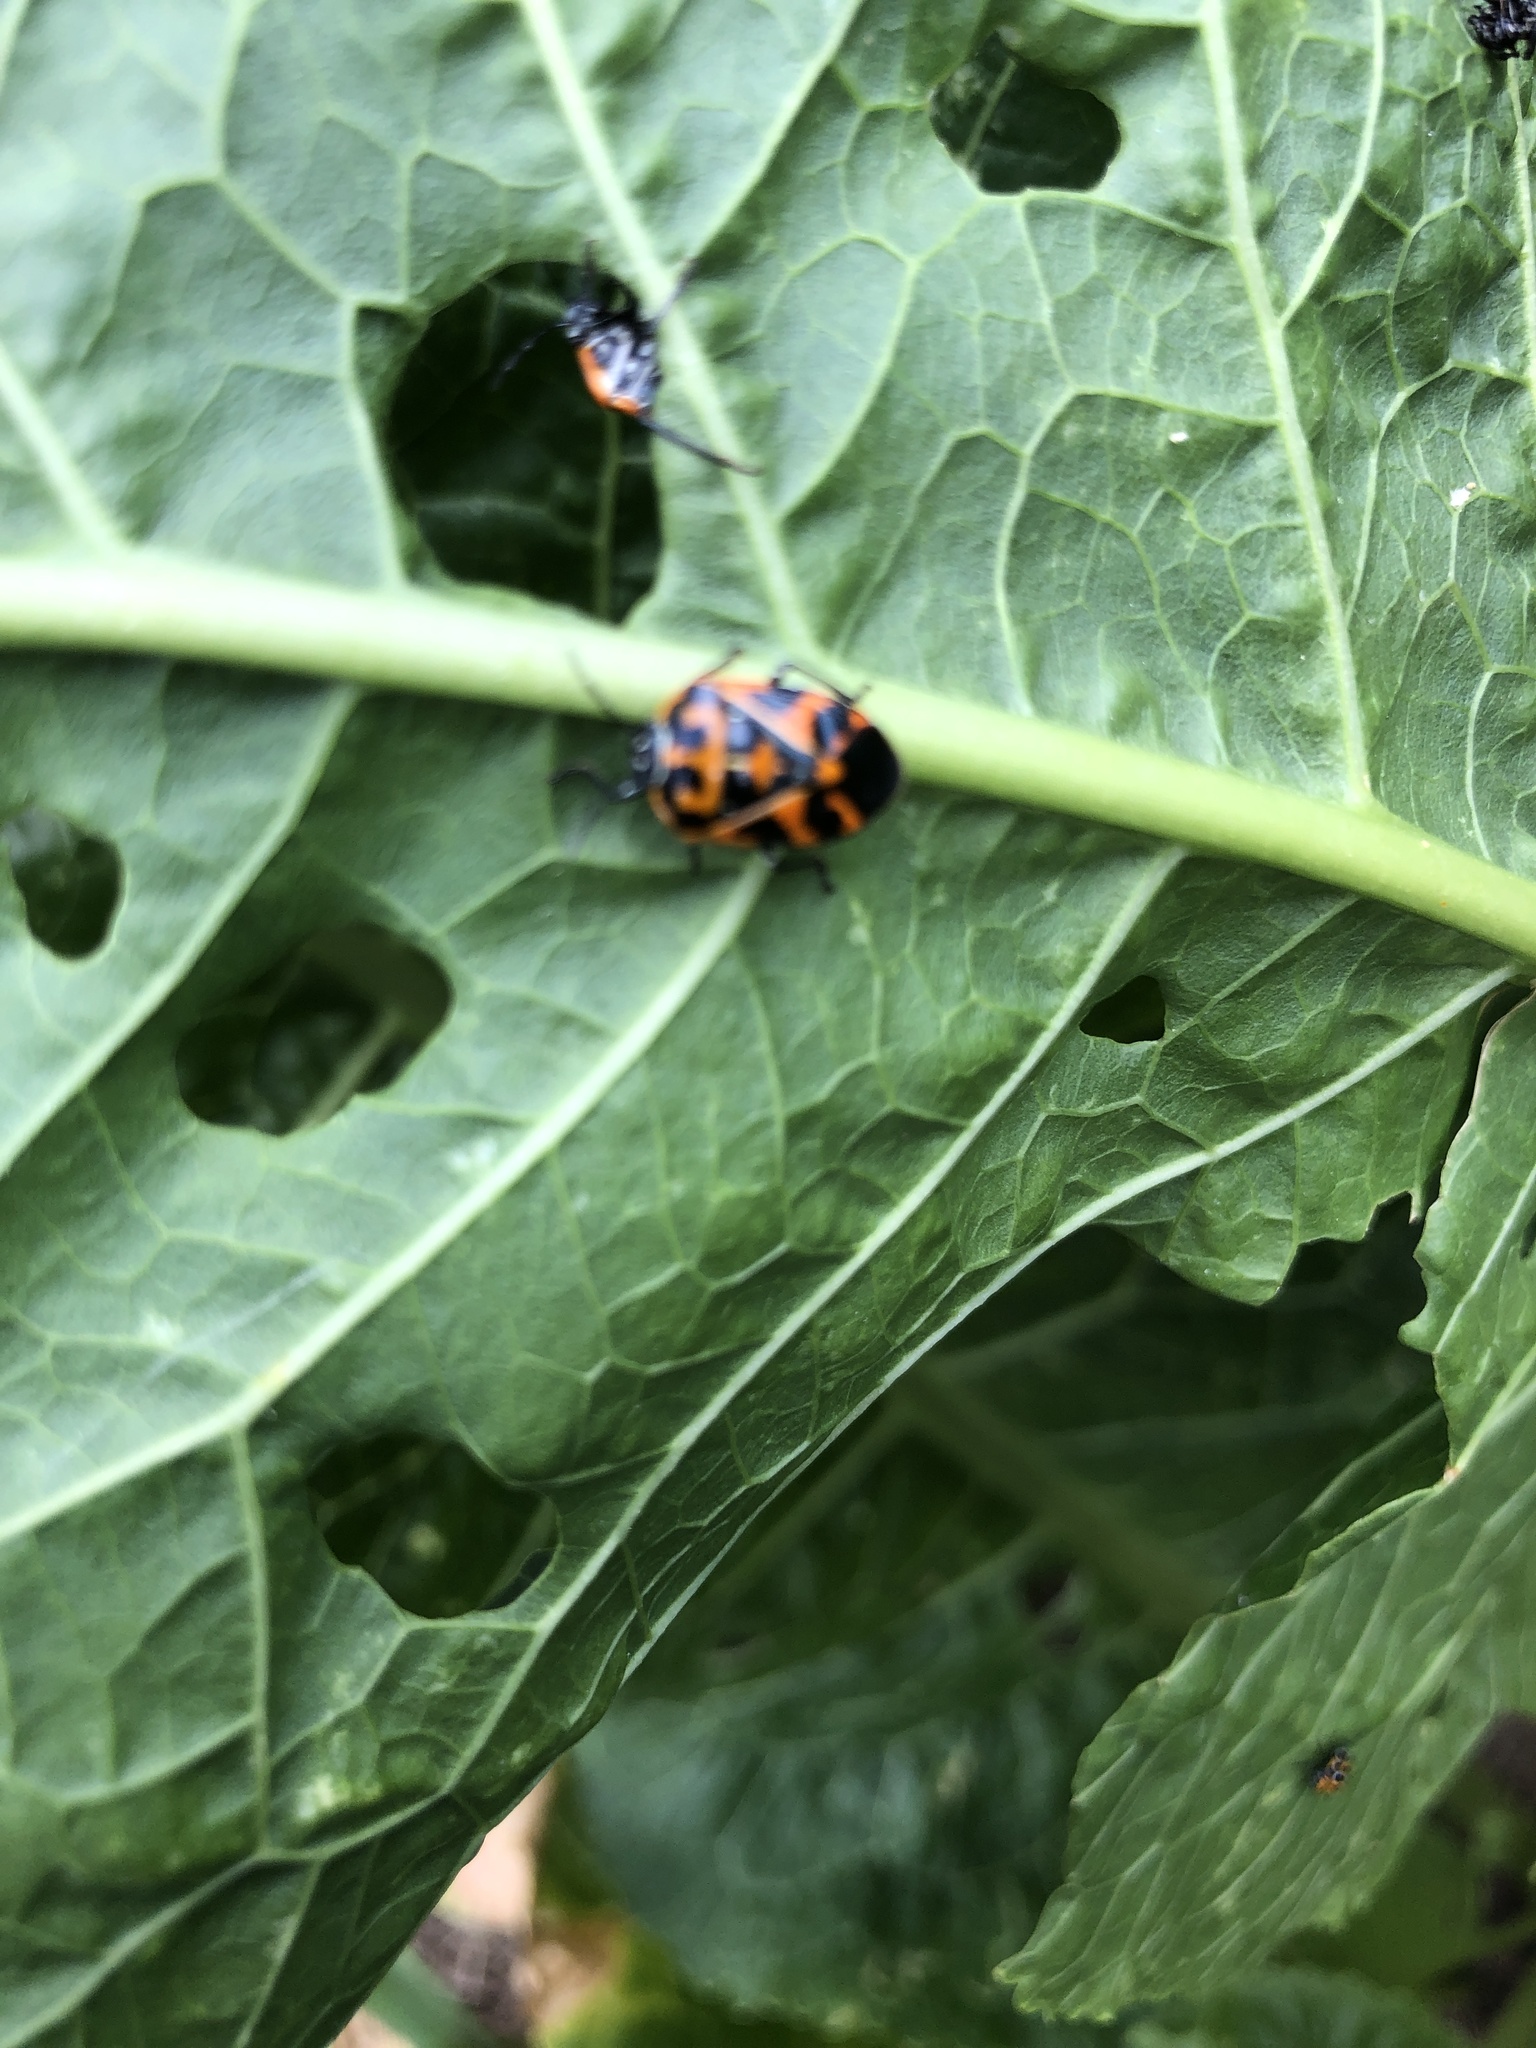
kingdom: Animalia
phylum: Arthropoda
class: Insecta
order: Hemiptera
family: Pentatomidae
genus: Murgantia
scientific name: Murgantia histrionica
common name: Harlequin bug
